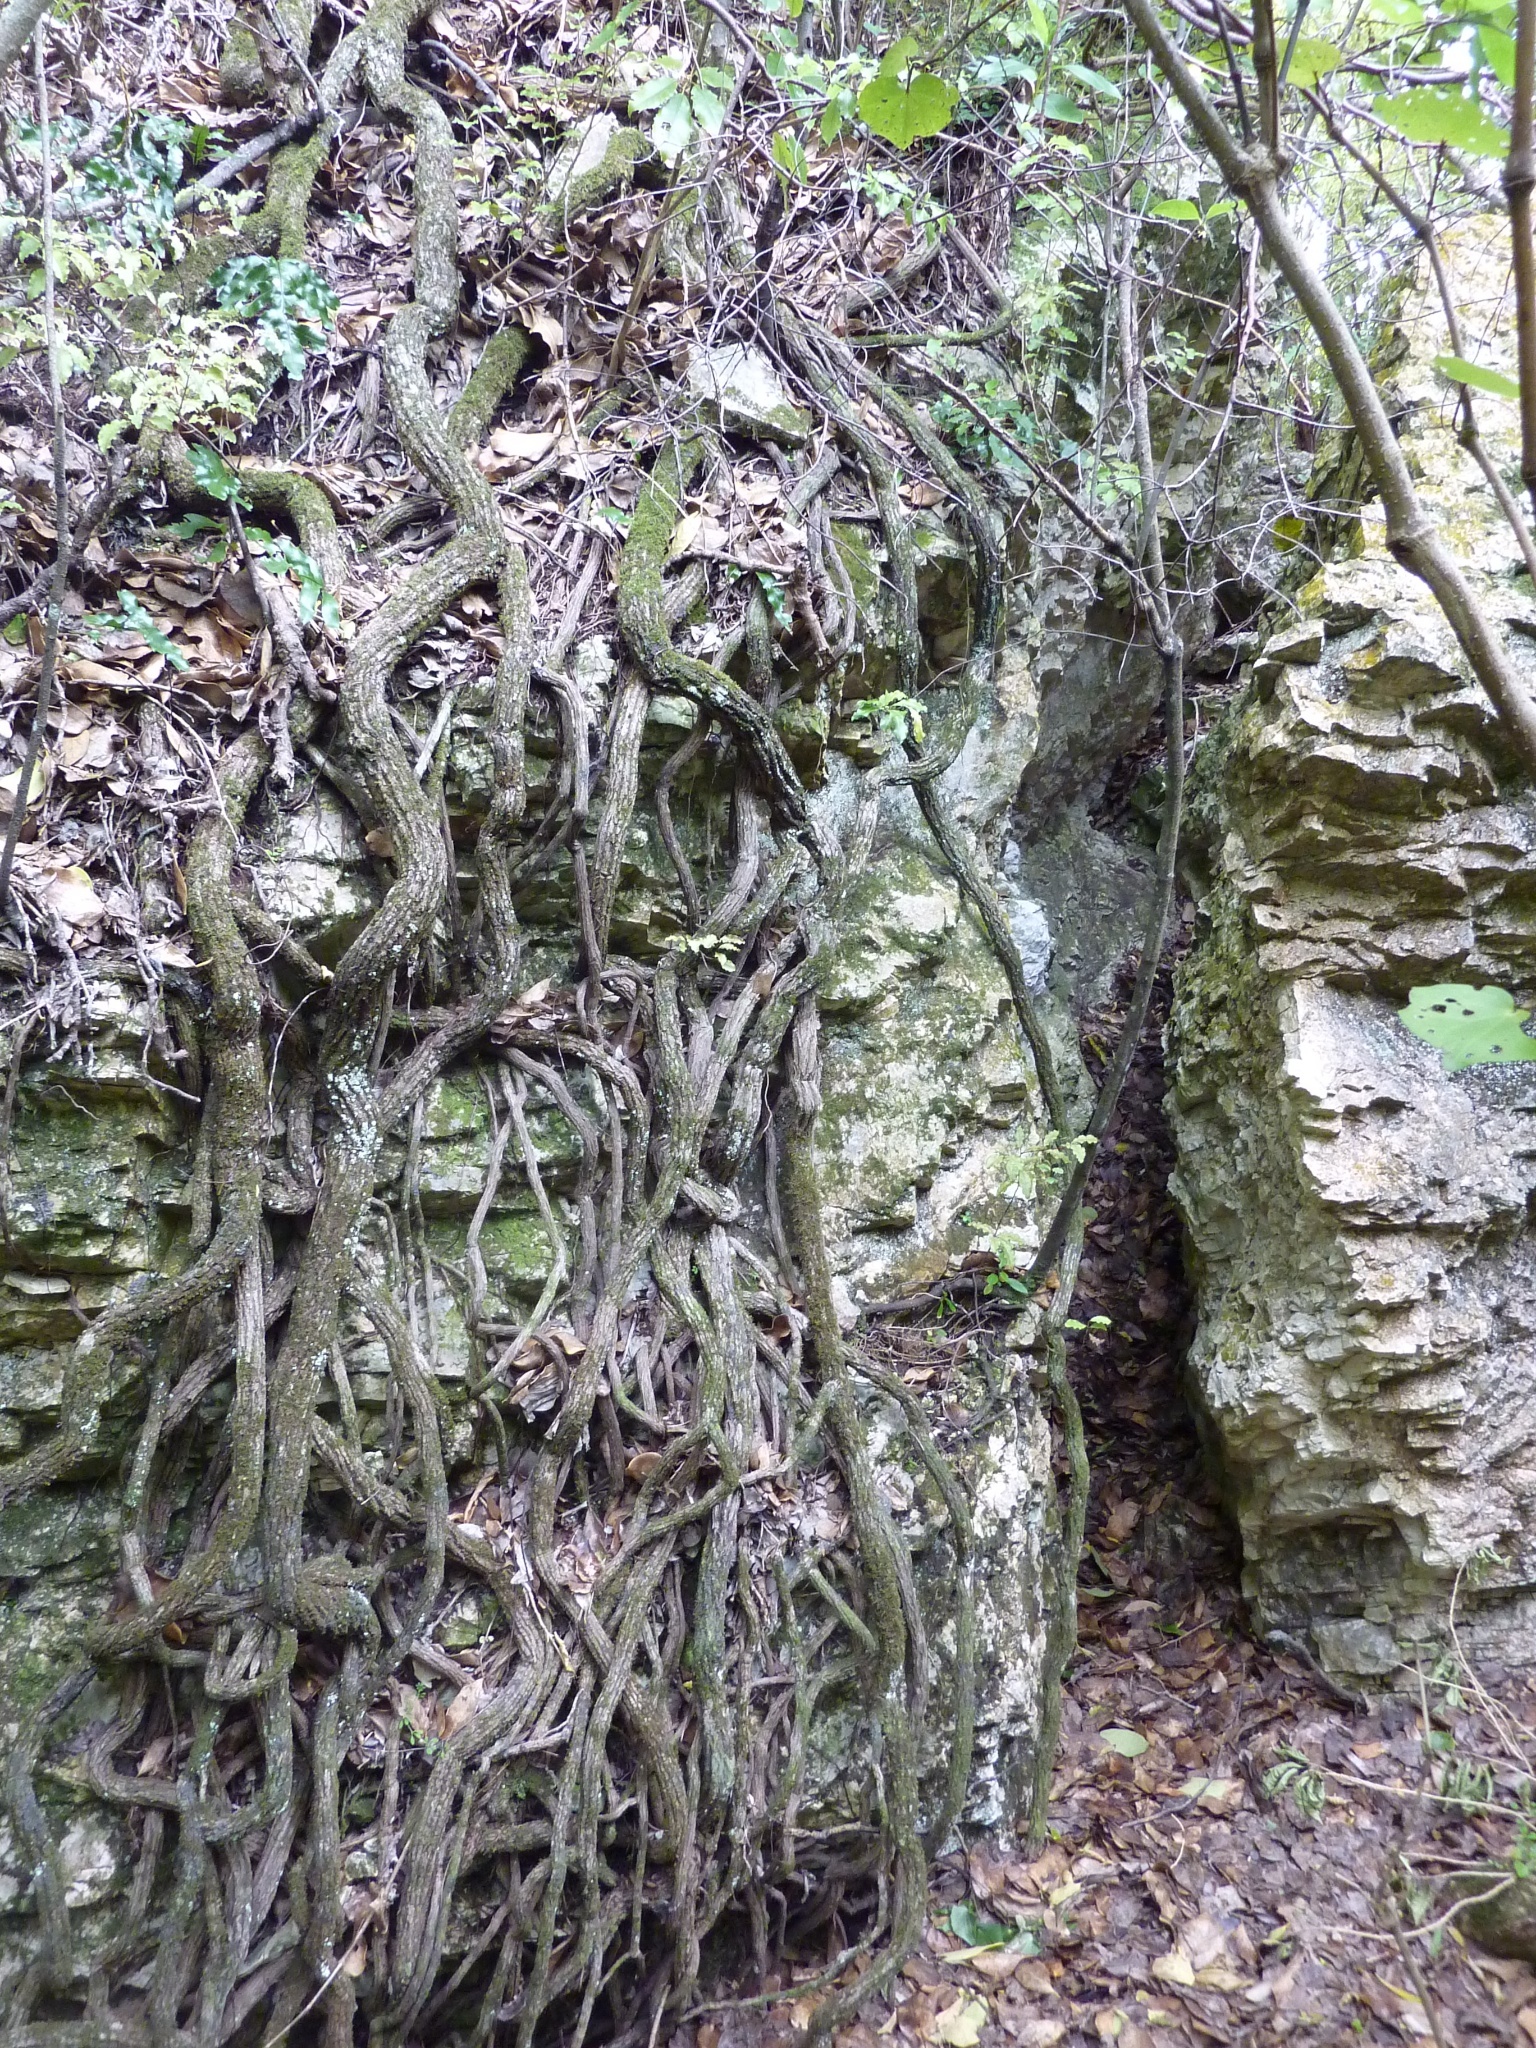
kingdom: Plantae
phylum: Tracheophyta
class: Magnoliopsida
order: Apiales
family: Griseliniaceae
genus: Griselinia
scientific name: Griselinia lucida
